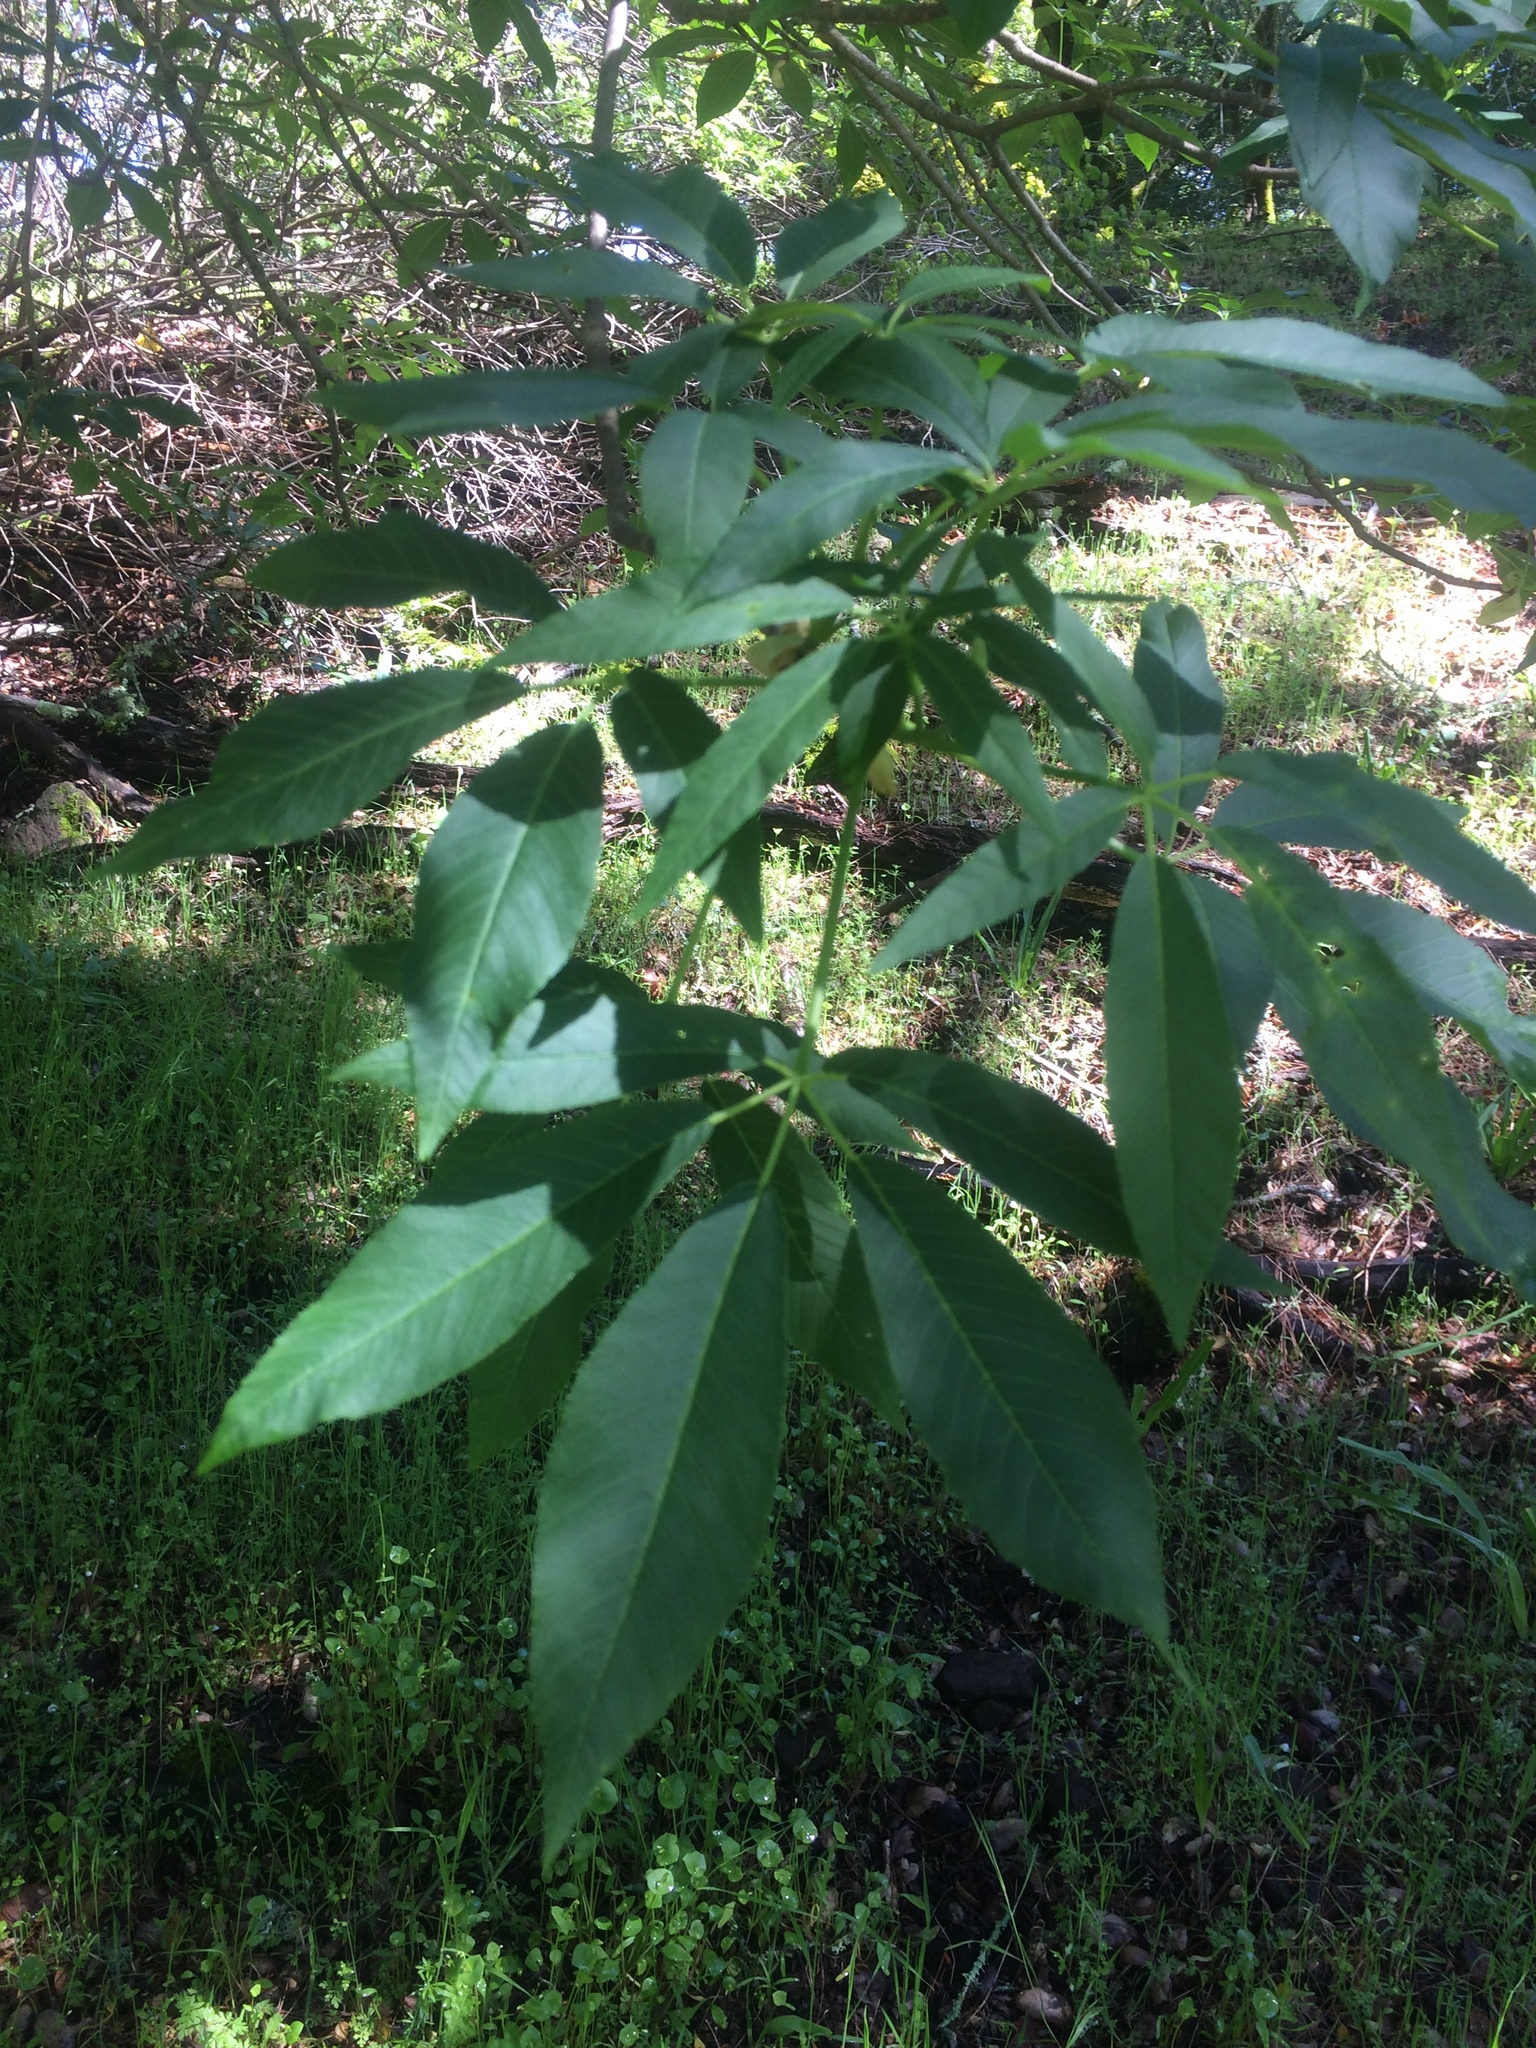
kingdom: Plantae
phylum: Tracheophyta
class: Magnoliopsida
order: Sapindales
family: Sapindaceae
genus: Aesculus
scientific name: Aesculus californica
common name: California buckeye
